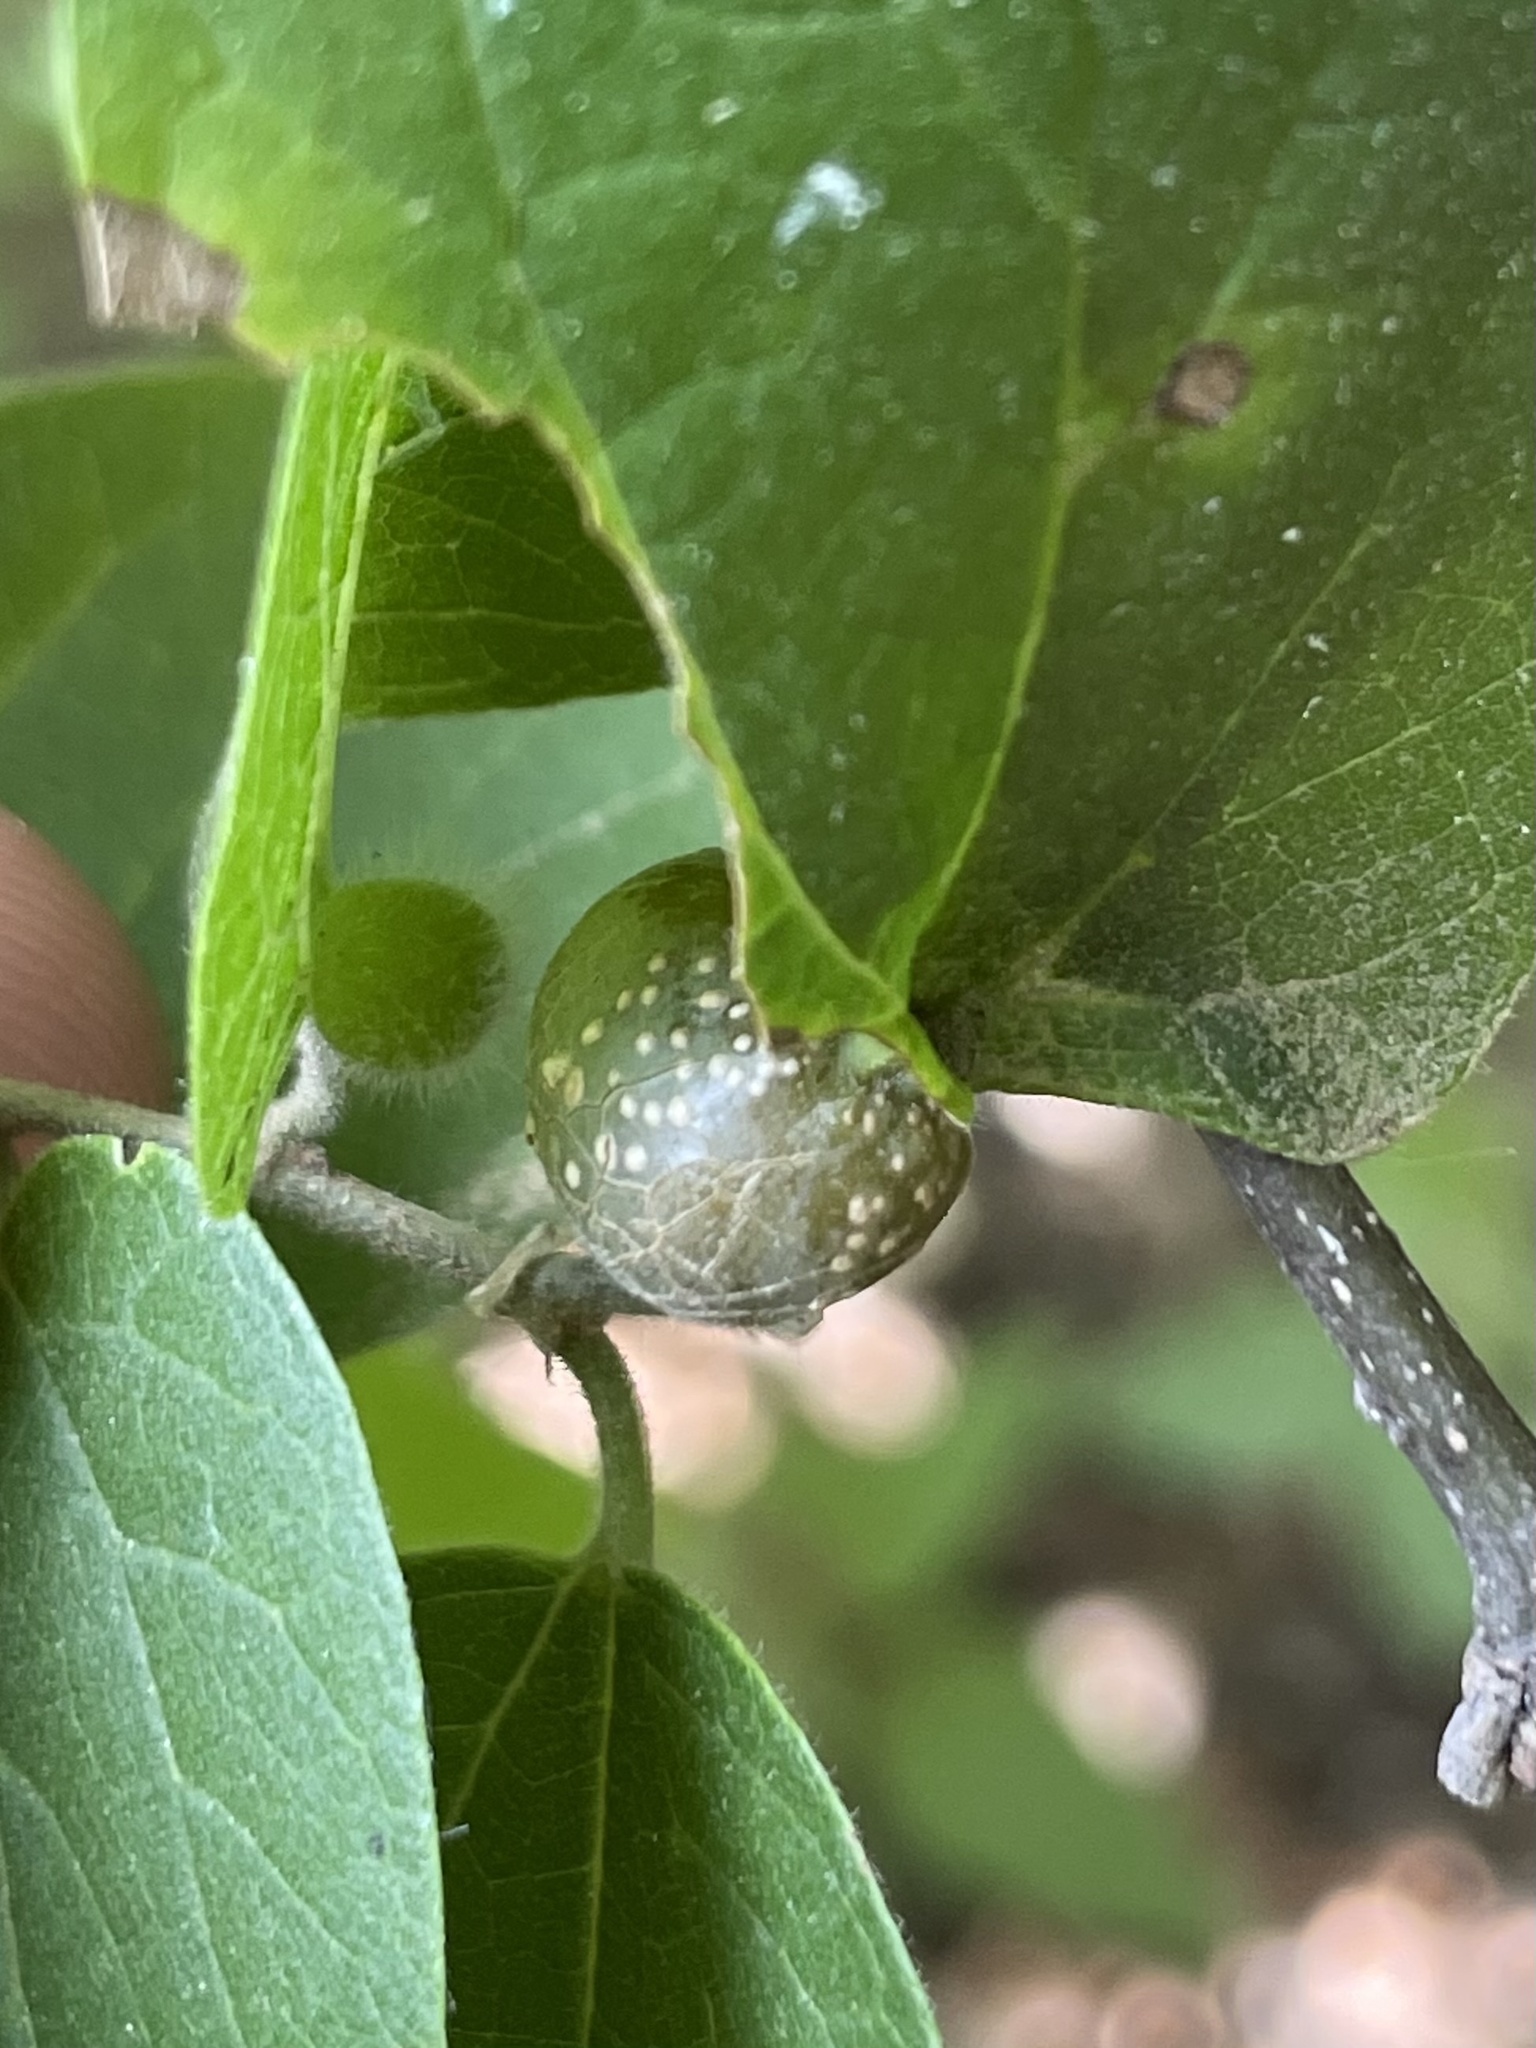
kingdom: Animalia
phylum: Arthropoda
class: Insecta
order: Hemiptera
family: Aphalaridae
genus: Pachypsylla
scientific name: Pachypsylla venusta
